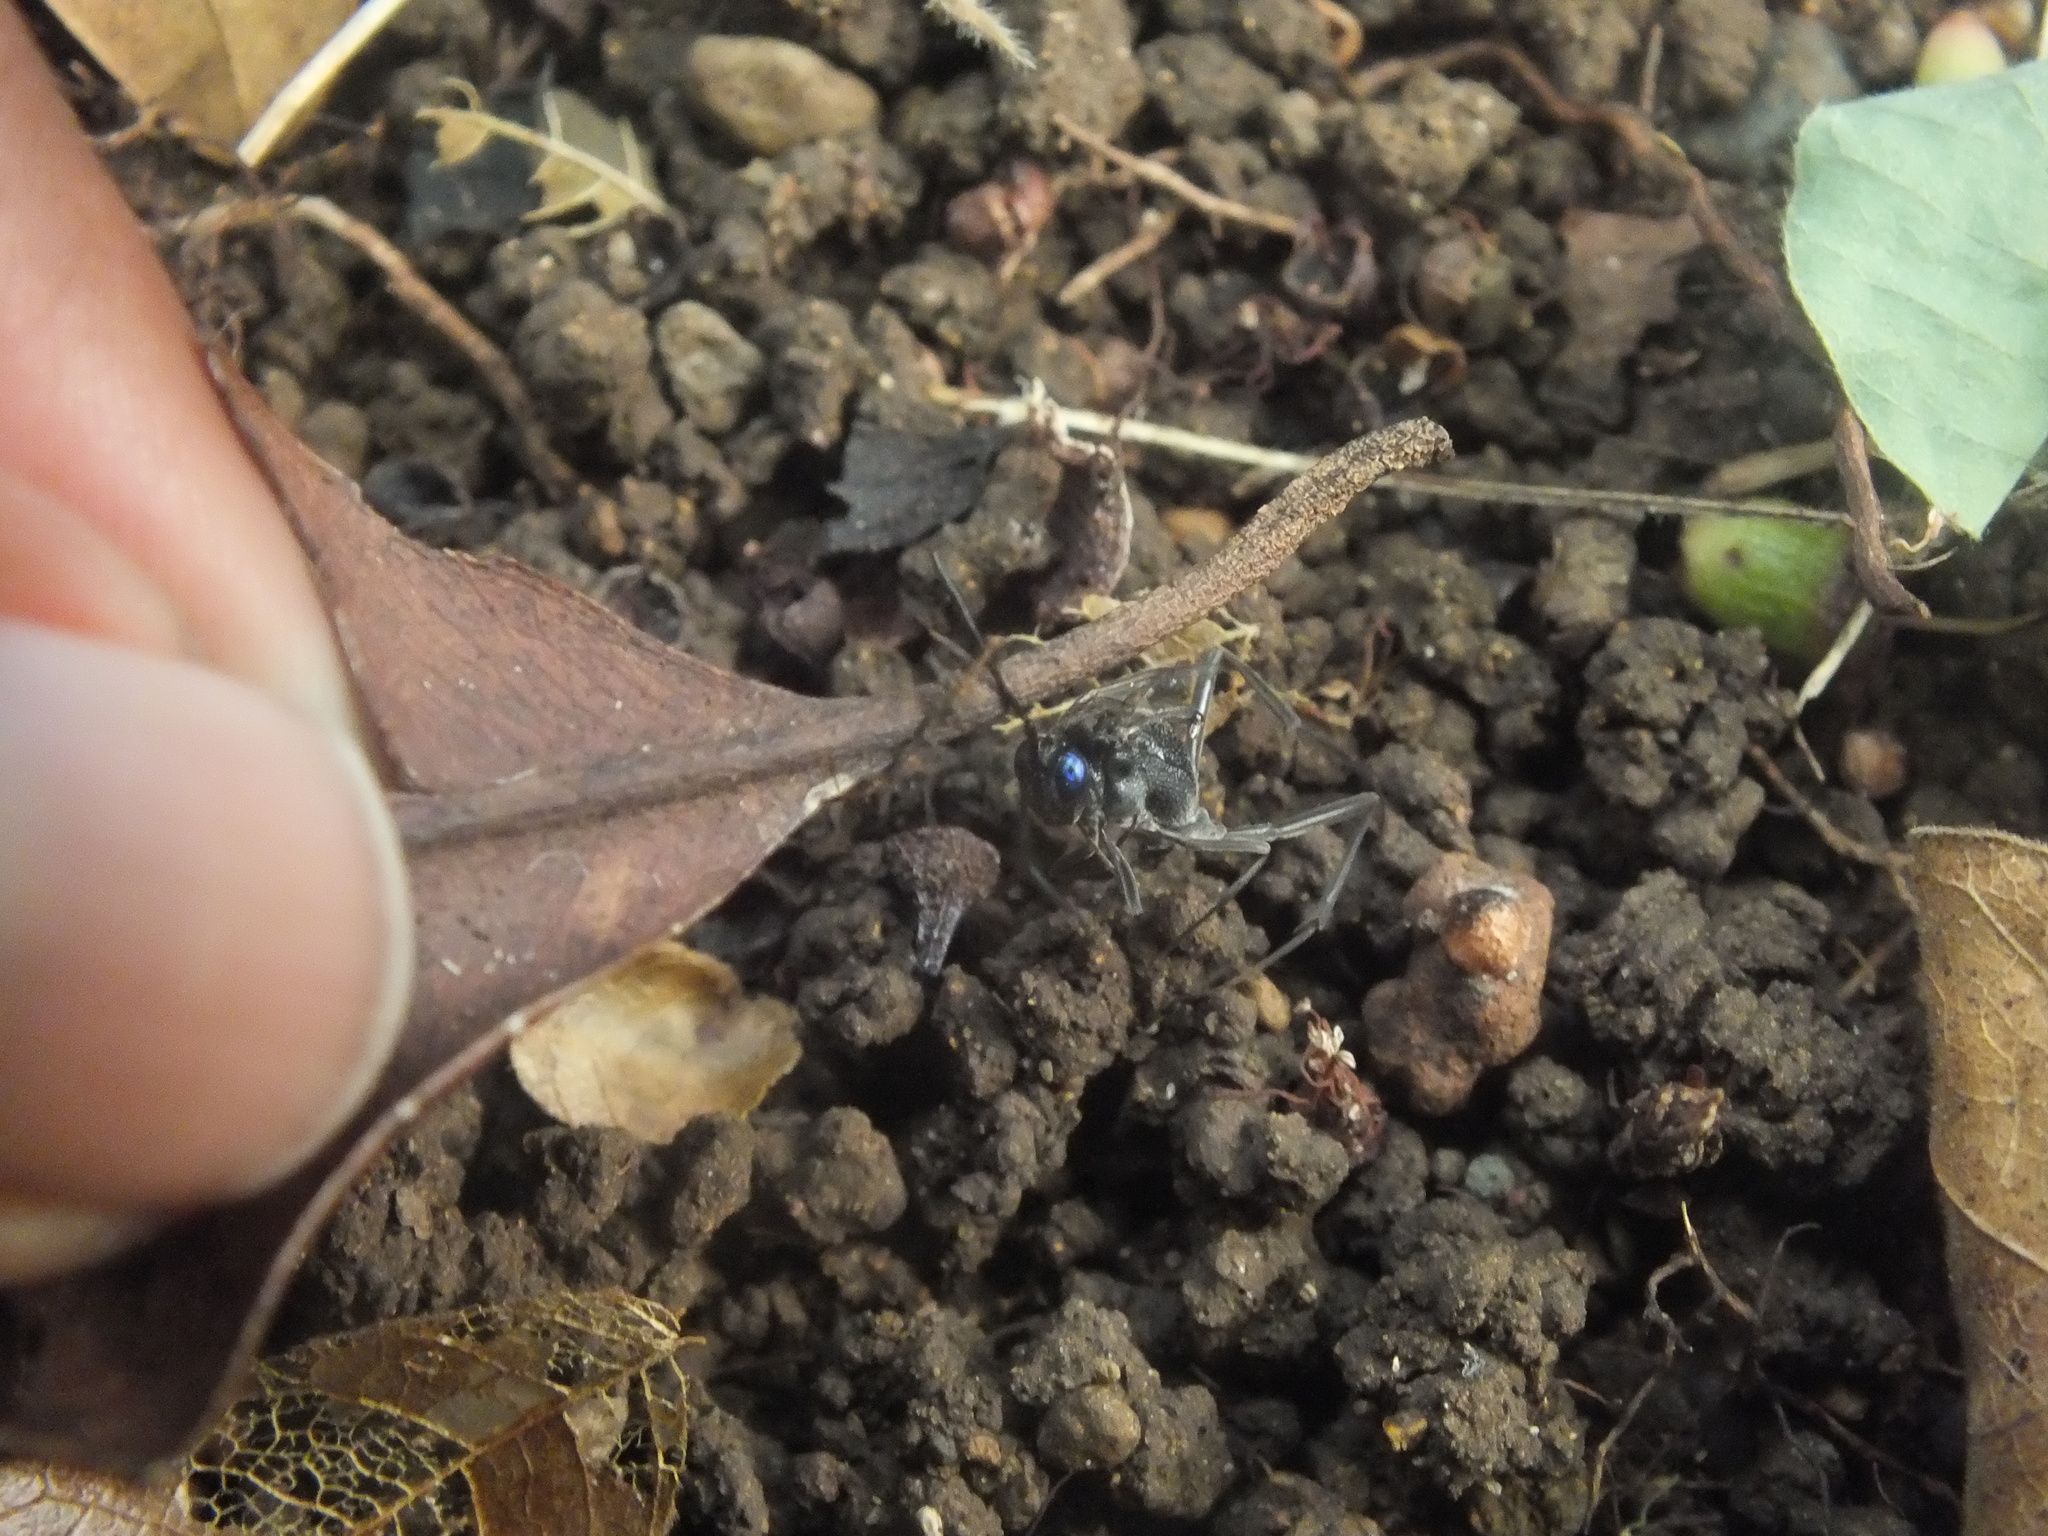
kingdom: Animalia
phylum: Arthropoda
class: Insecta
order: Hymenoptera
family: Evaniidae
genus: Evania
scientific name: Evania appendigaster
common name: Ensign wasp
